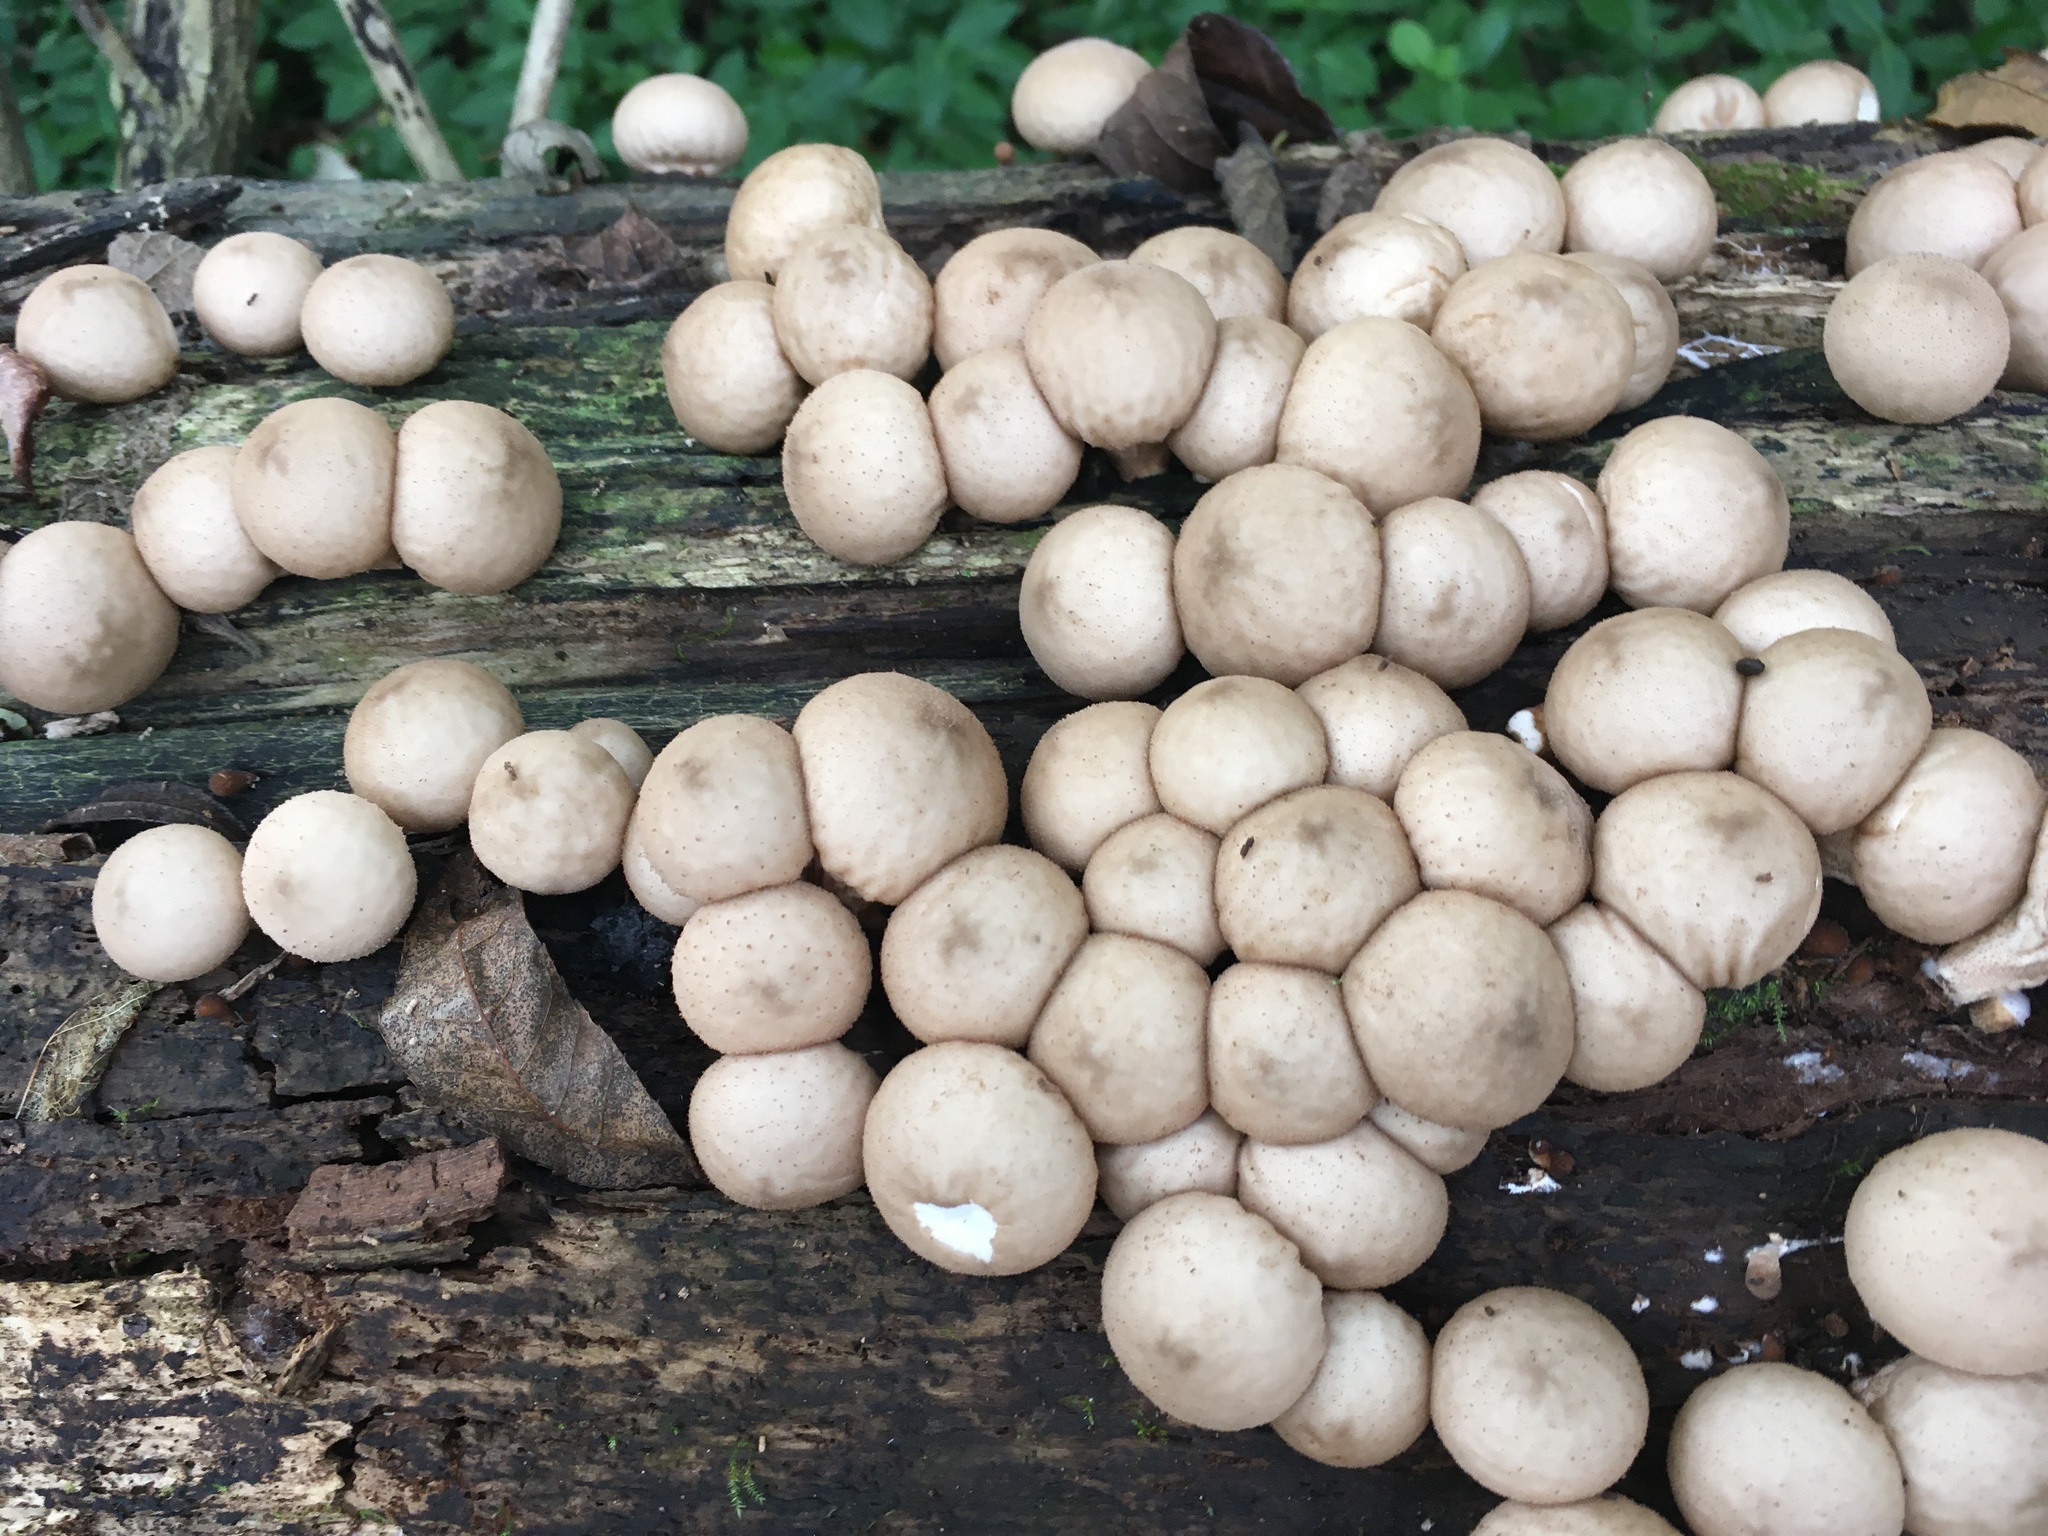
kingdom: Fungi
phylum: Basidiomycota
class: Agaricomycetes
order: Agaricales
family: Lycoperdaceae
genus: Apioperdon
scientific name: Apioperdon pyriforme
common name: Pear-shaped puffball
